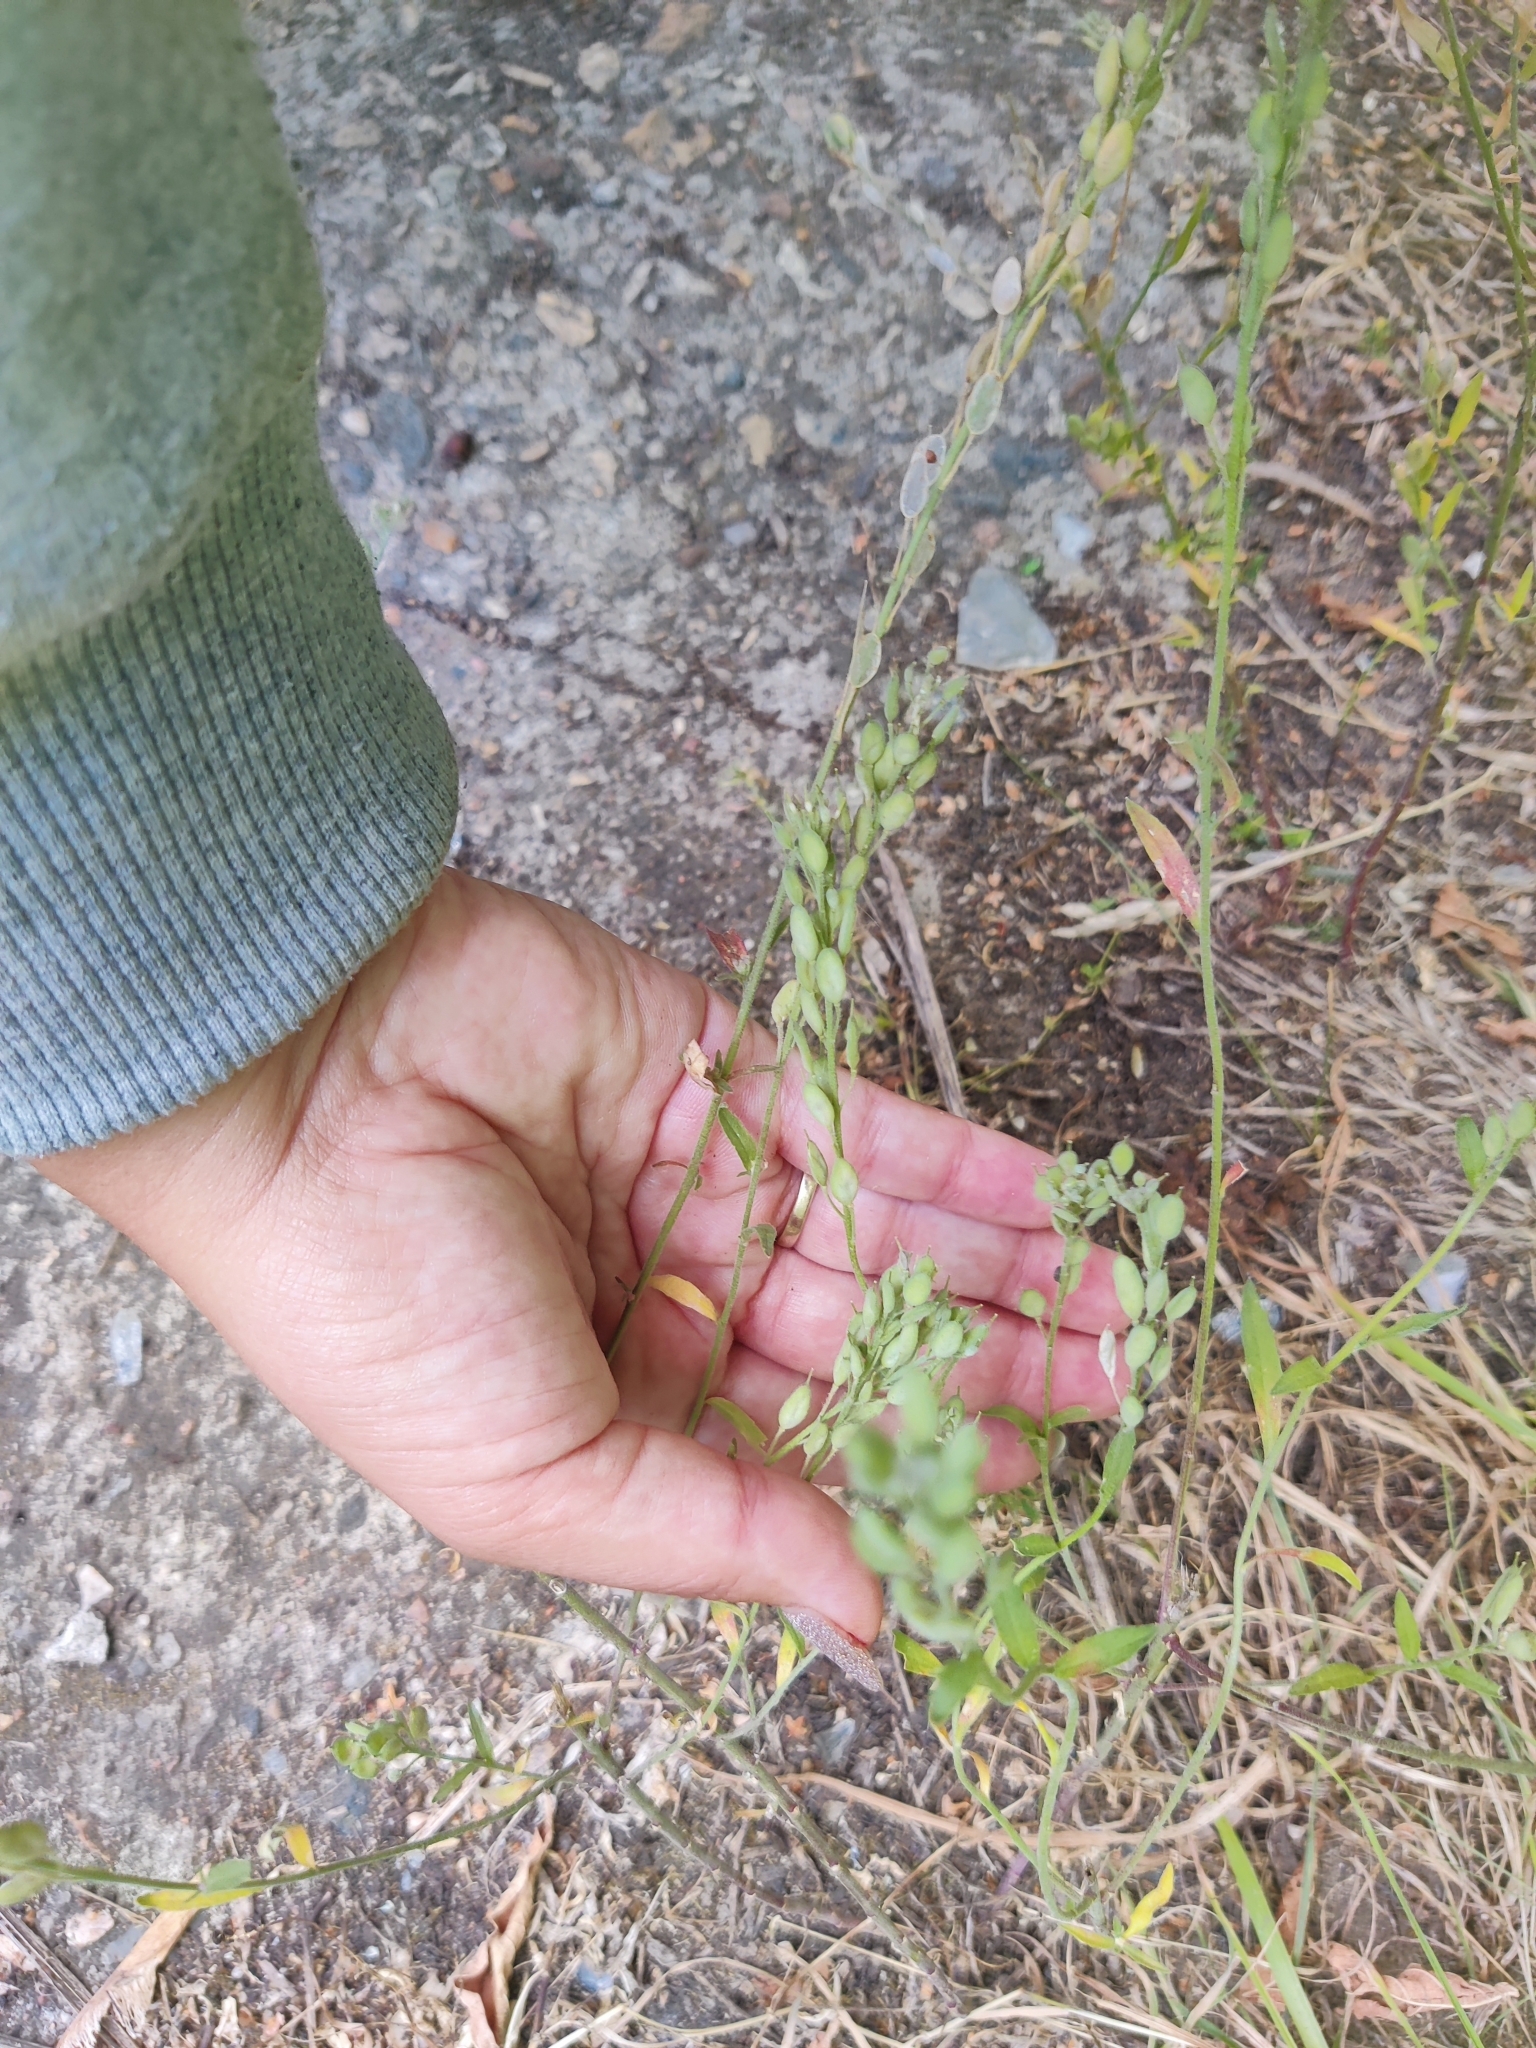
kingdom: Plantae
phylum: Tracheophyta
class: Magnoliopsida
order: Brassicales
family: Brassicaceae
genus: Berteroa
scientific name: Berteroa incana
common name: Hoary alison
